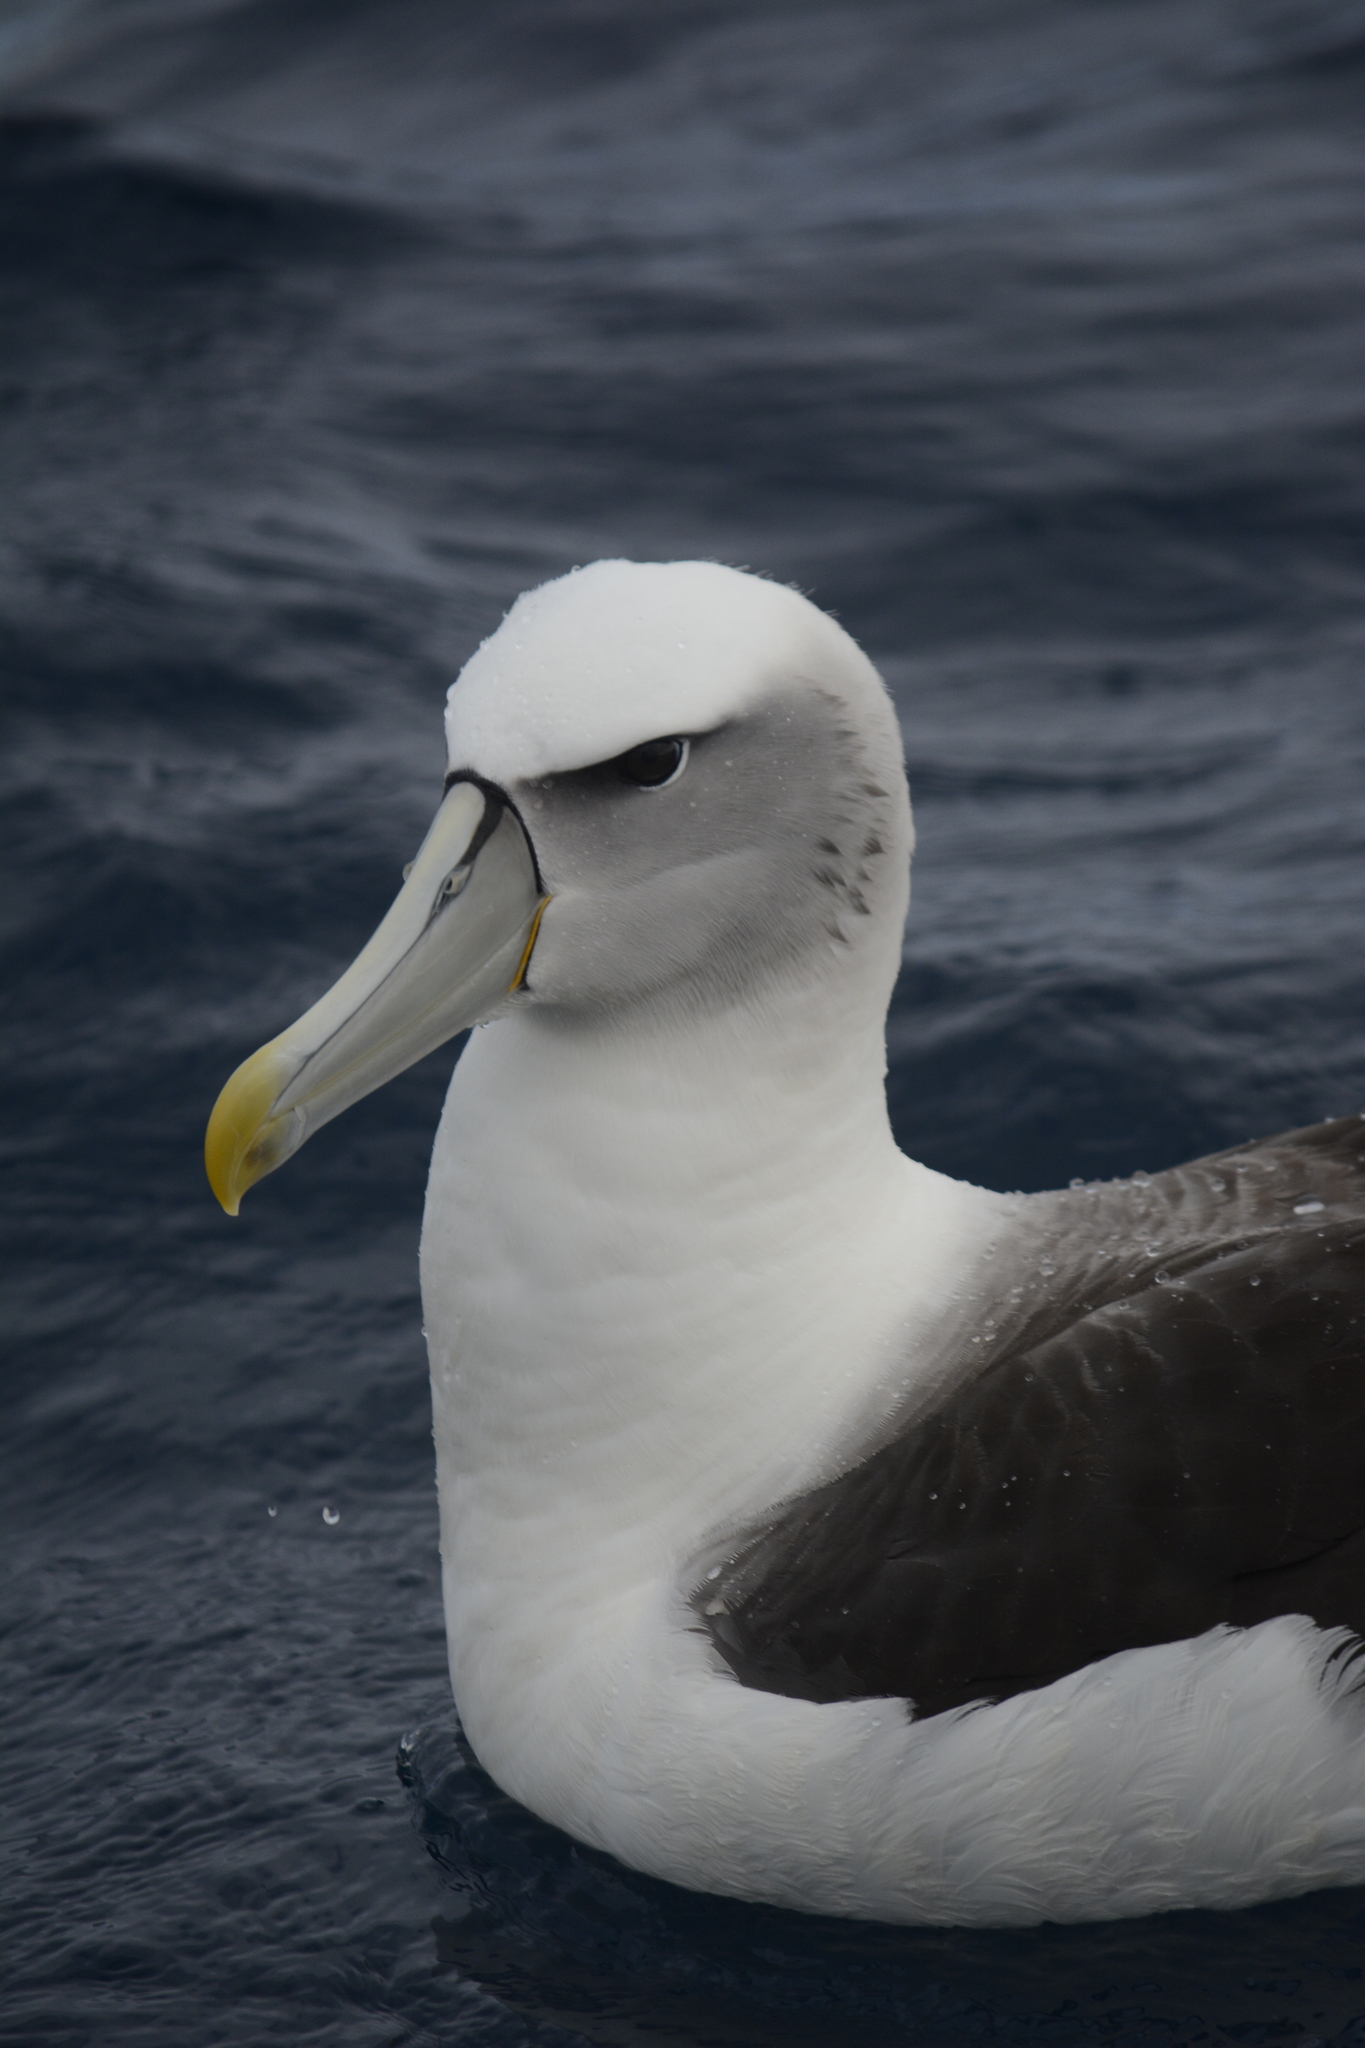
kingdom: Animalia
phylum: Chordata
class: Aves
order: Procellariiformes
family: Diomedeidae
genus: Thalassarche
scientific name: Thalassarche cauta
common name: Shy albatross
